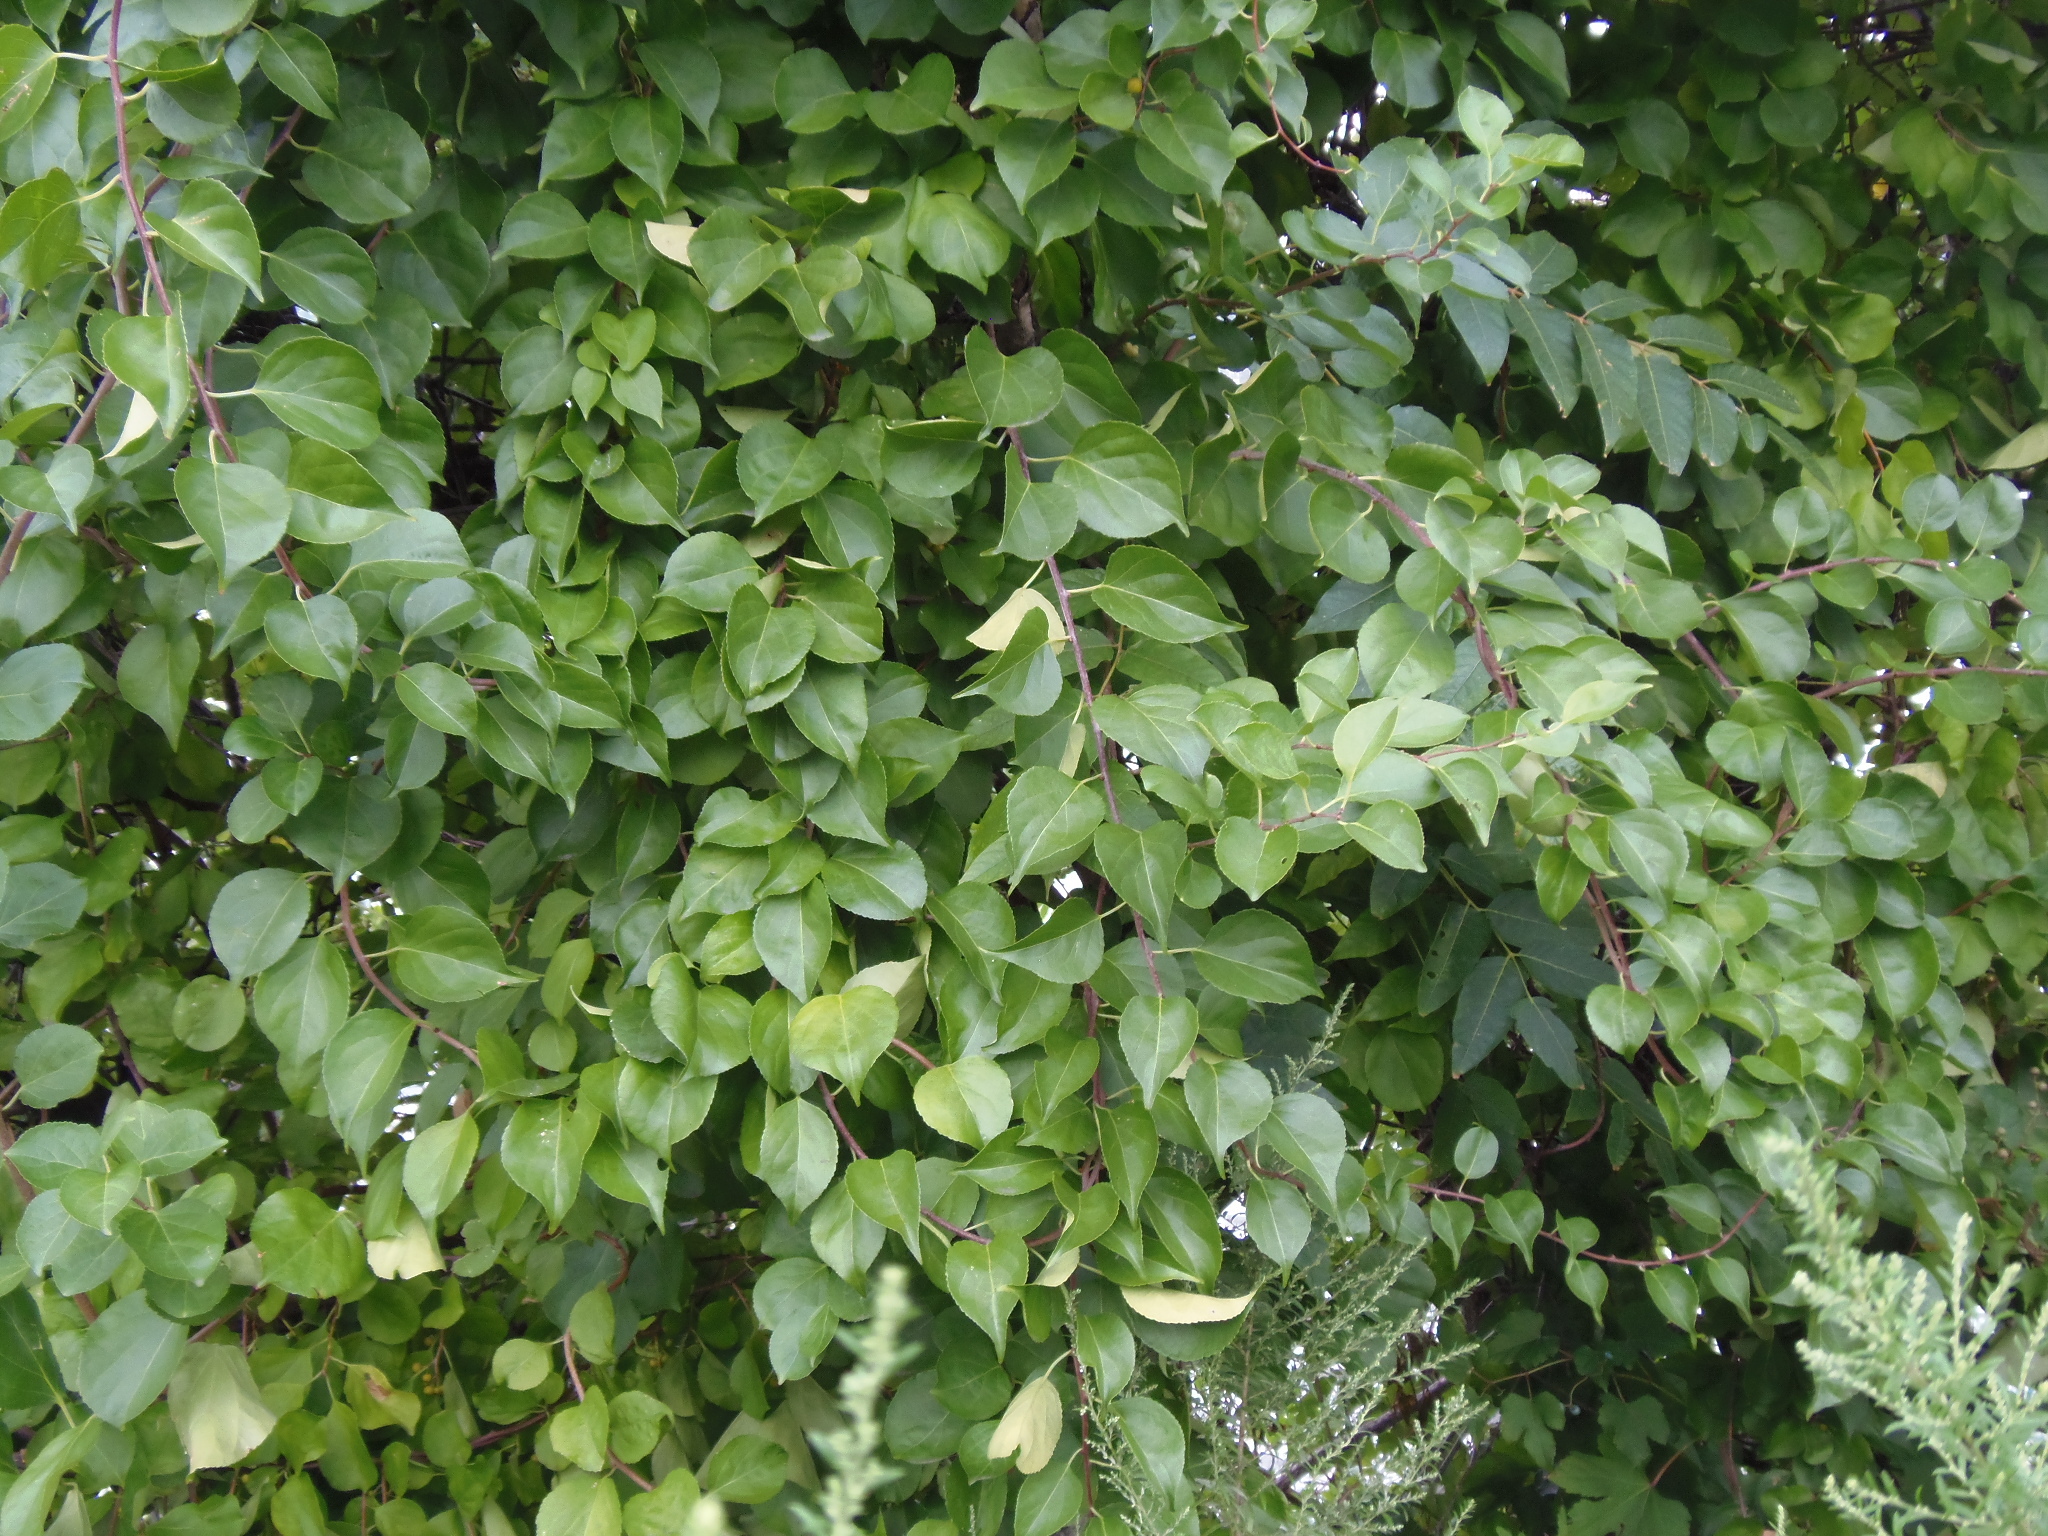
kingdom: Plantae
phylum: Tracheophyta
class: Magnoliopsida
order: Celastrales
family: Celastraceae
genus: Celastrus
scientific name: Celastrus orbiculatus
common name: Oriental bittersweet
